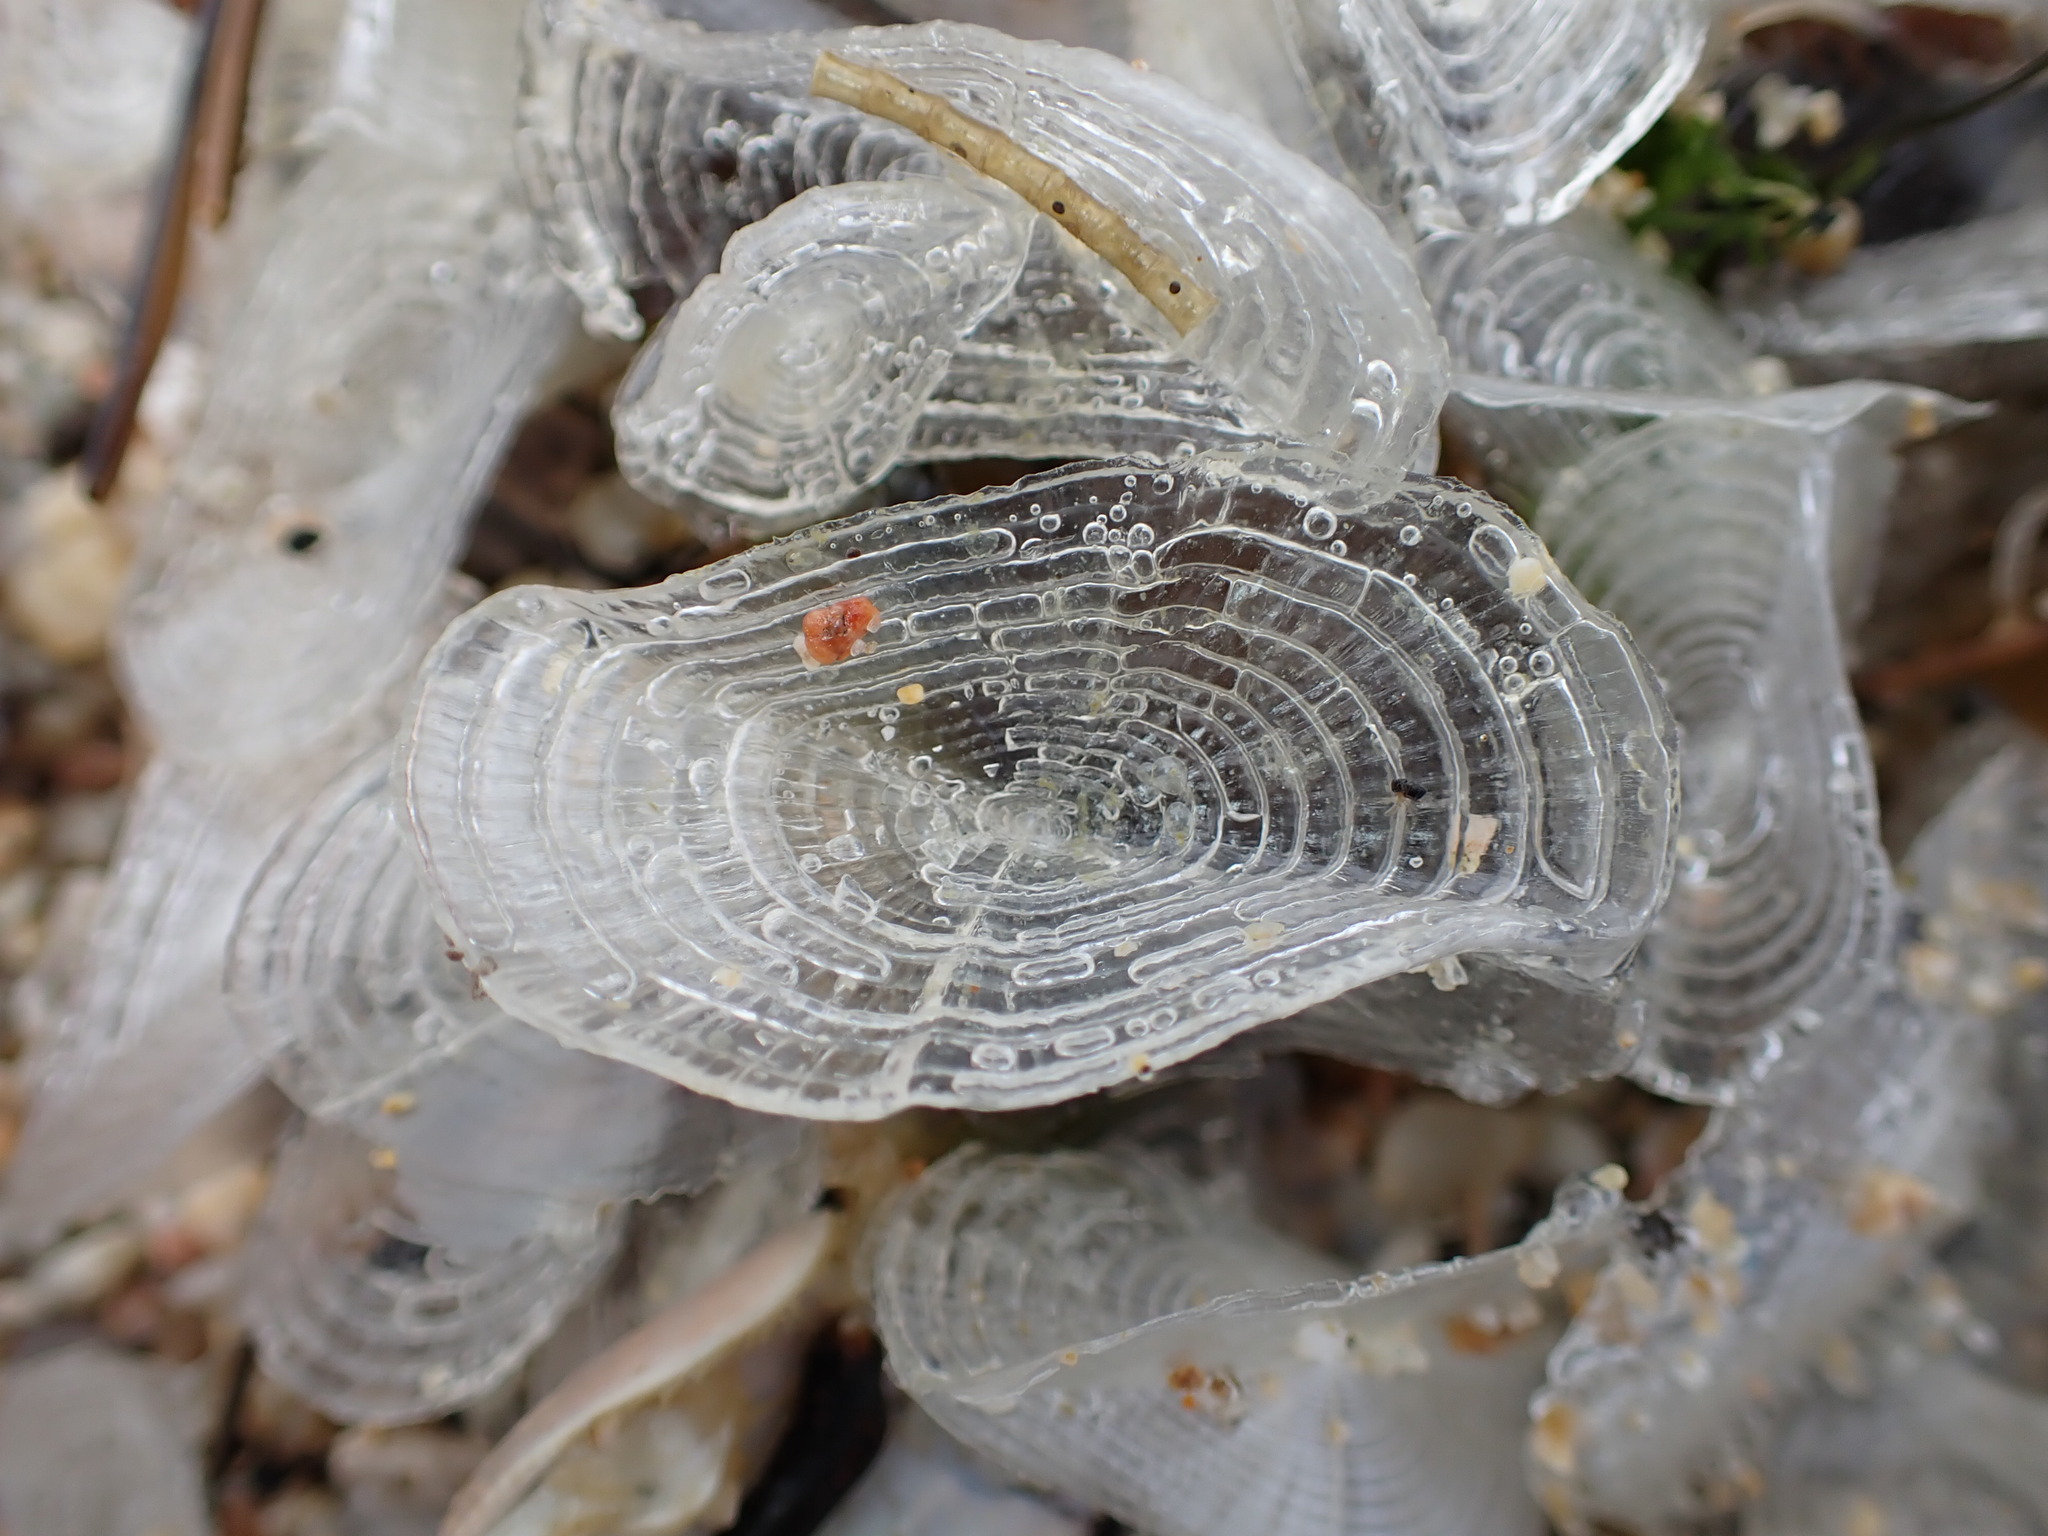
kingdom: Animalia
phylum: Cnidaria
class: Hydrozoa
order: Anthoathecata
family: Porpitidae
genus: Velella
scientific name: Velella velella
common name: By-the-wind-sailor
